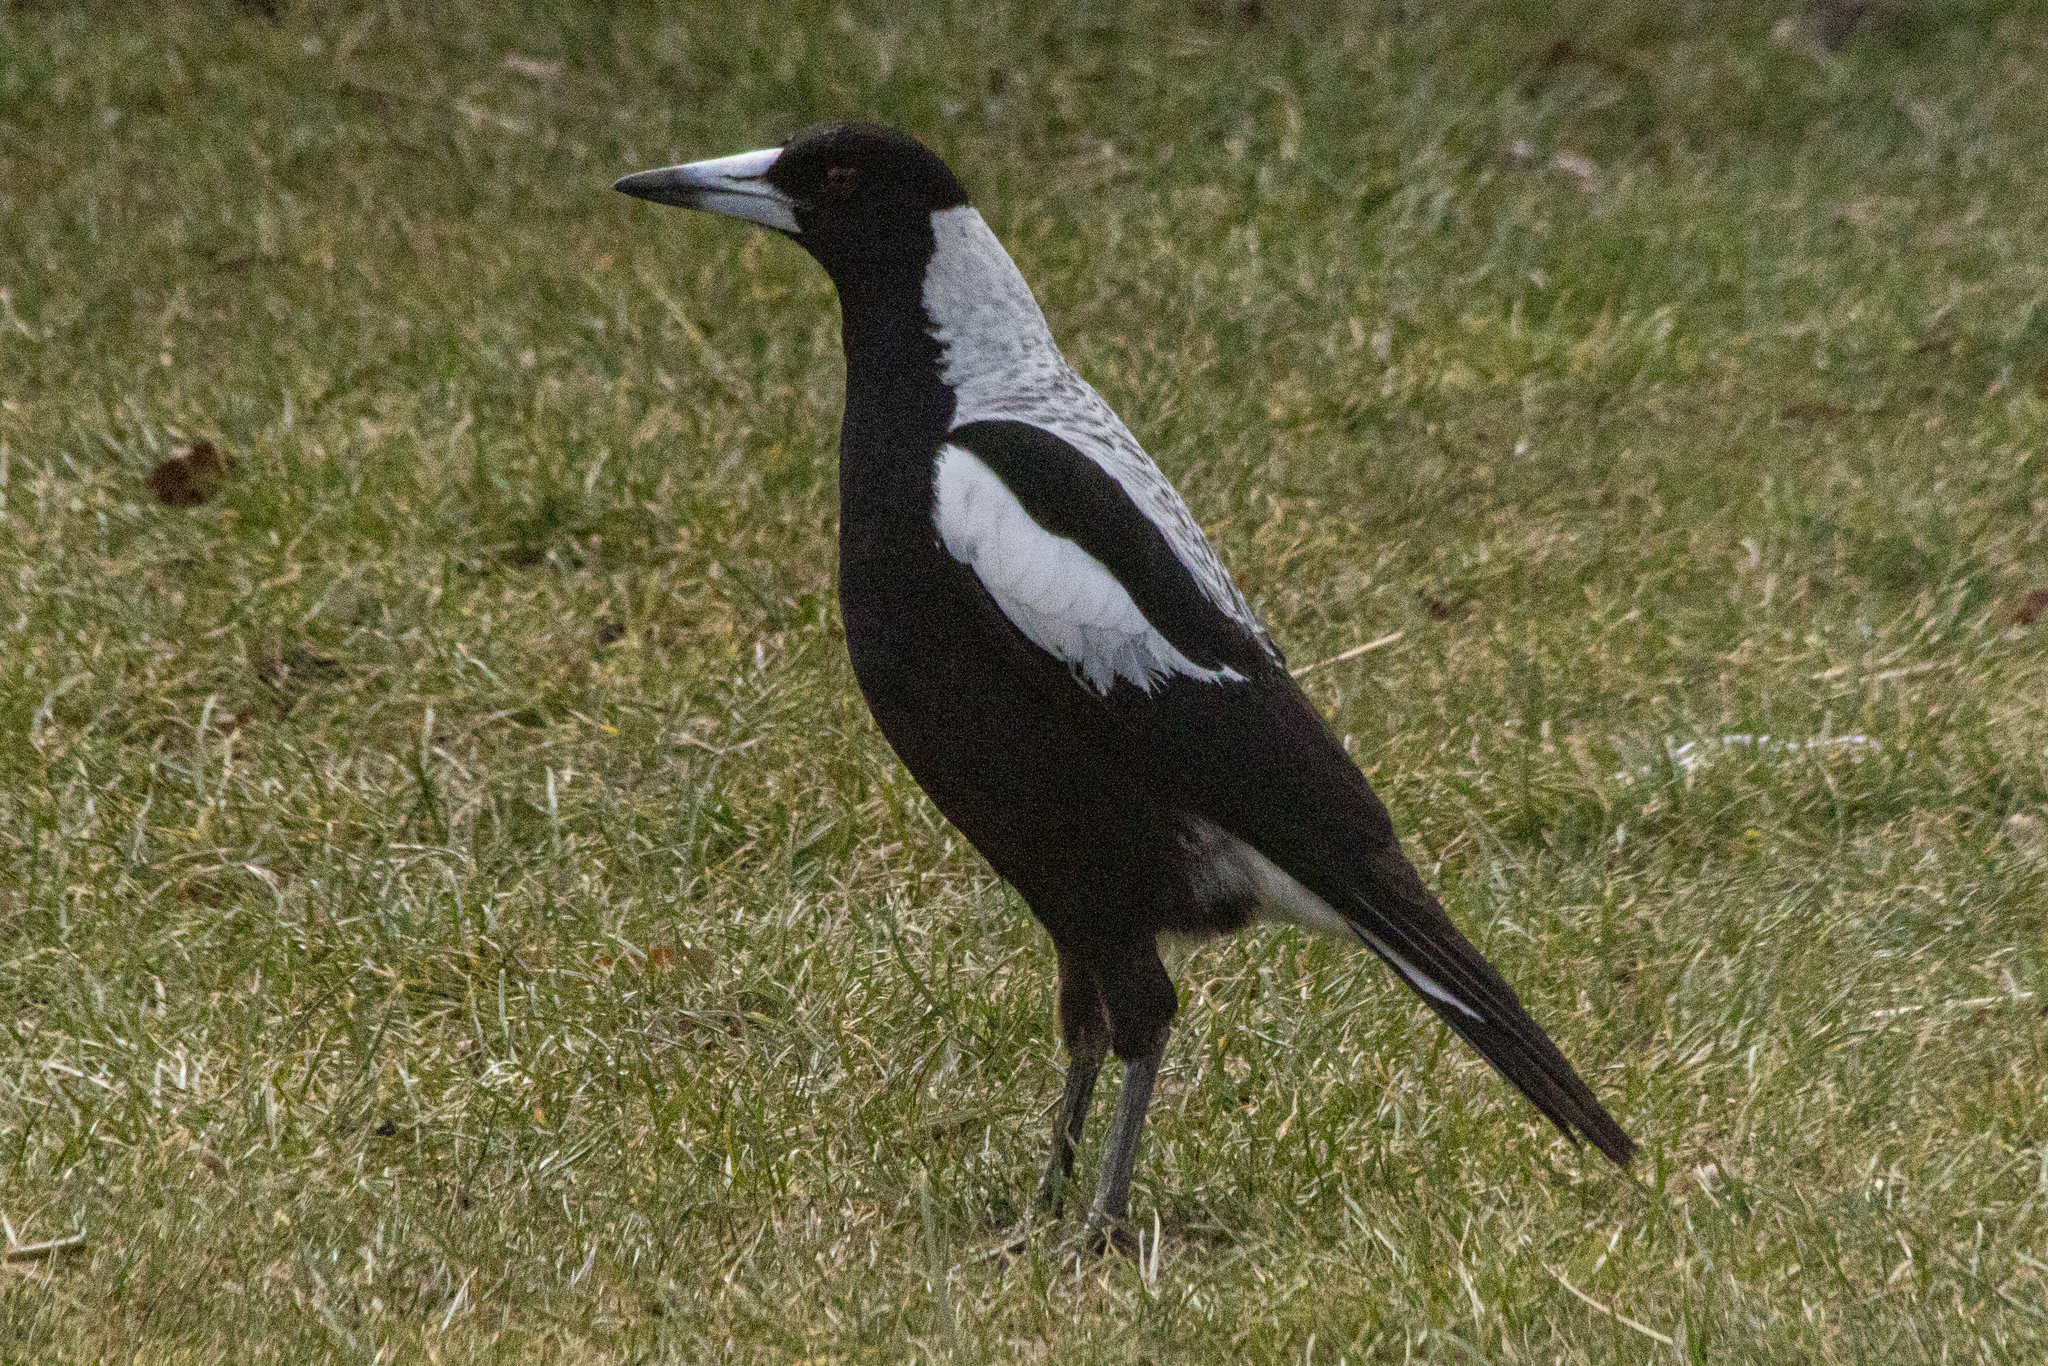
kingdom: Animalia
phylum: Chordata
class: Aves
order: Passeriformes
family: Cracticidae
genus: Gymnorhina
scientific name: Gymnorhina tibicen
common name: Australian magpie
